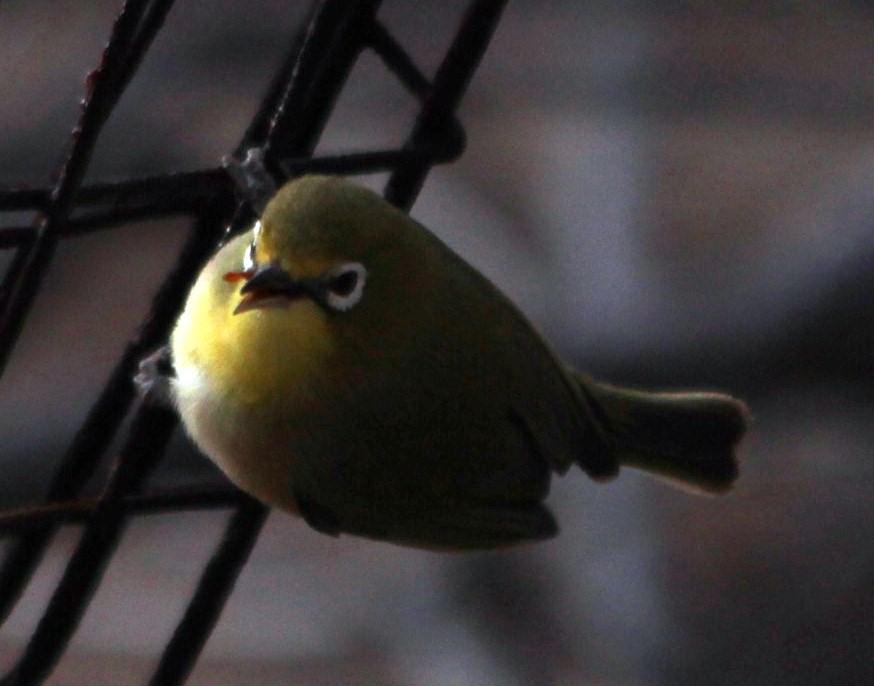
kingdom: Animalia
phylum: Chordata
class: Aves
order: Passeriformes
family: Zosteropidae
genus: Zosterops
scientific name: Zosterops pallidus
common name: Orange river white-eye
